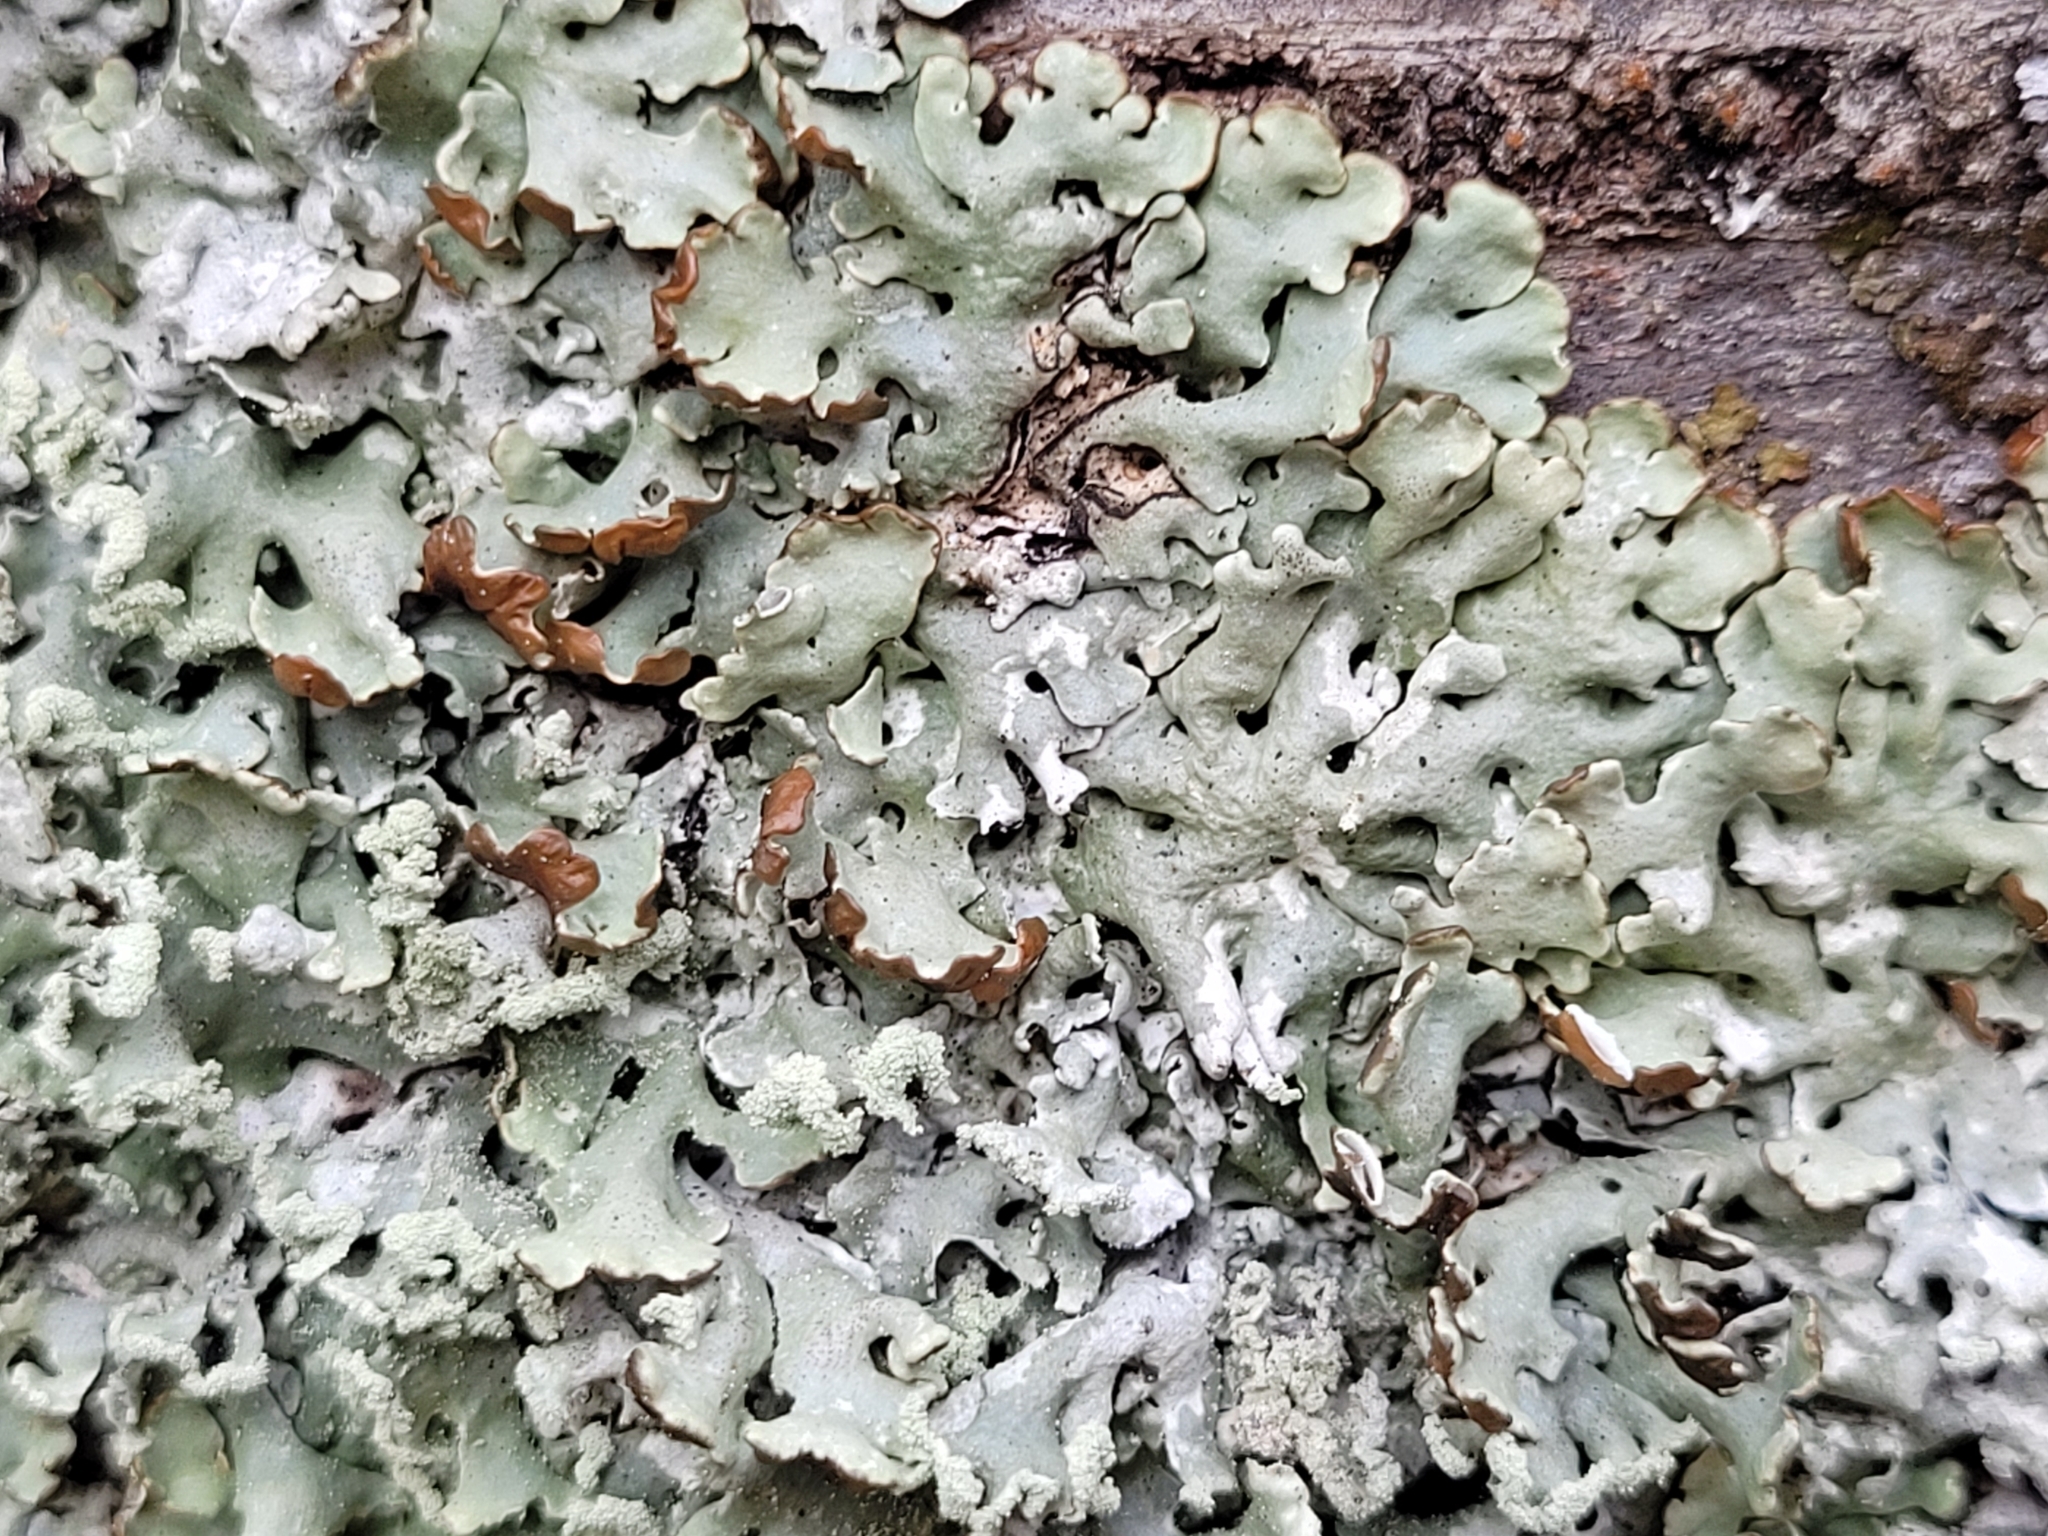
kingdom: Fungi
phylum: Ascomycota
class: Lecanoromycetes
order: Lecanorales
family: Parmeliaceae
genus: Hypogymnia
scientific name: Hypogymnia physodes
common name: Dark crottle
